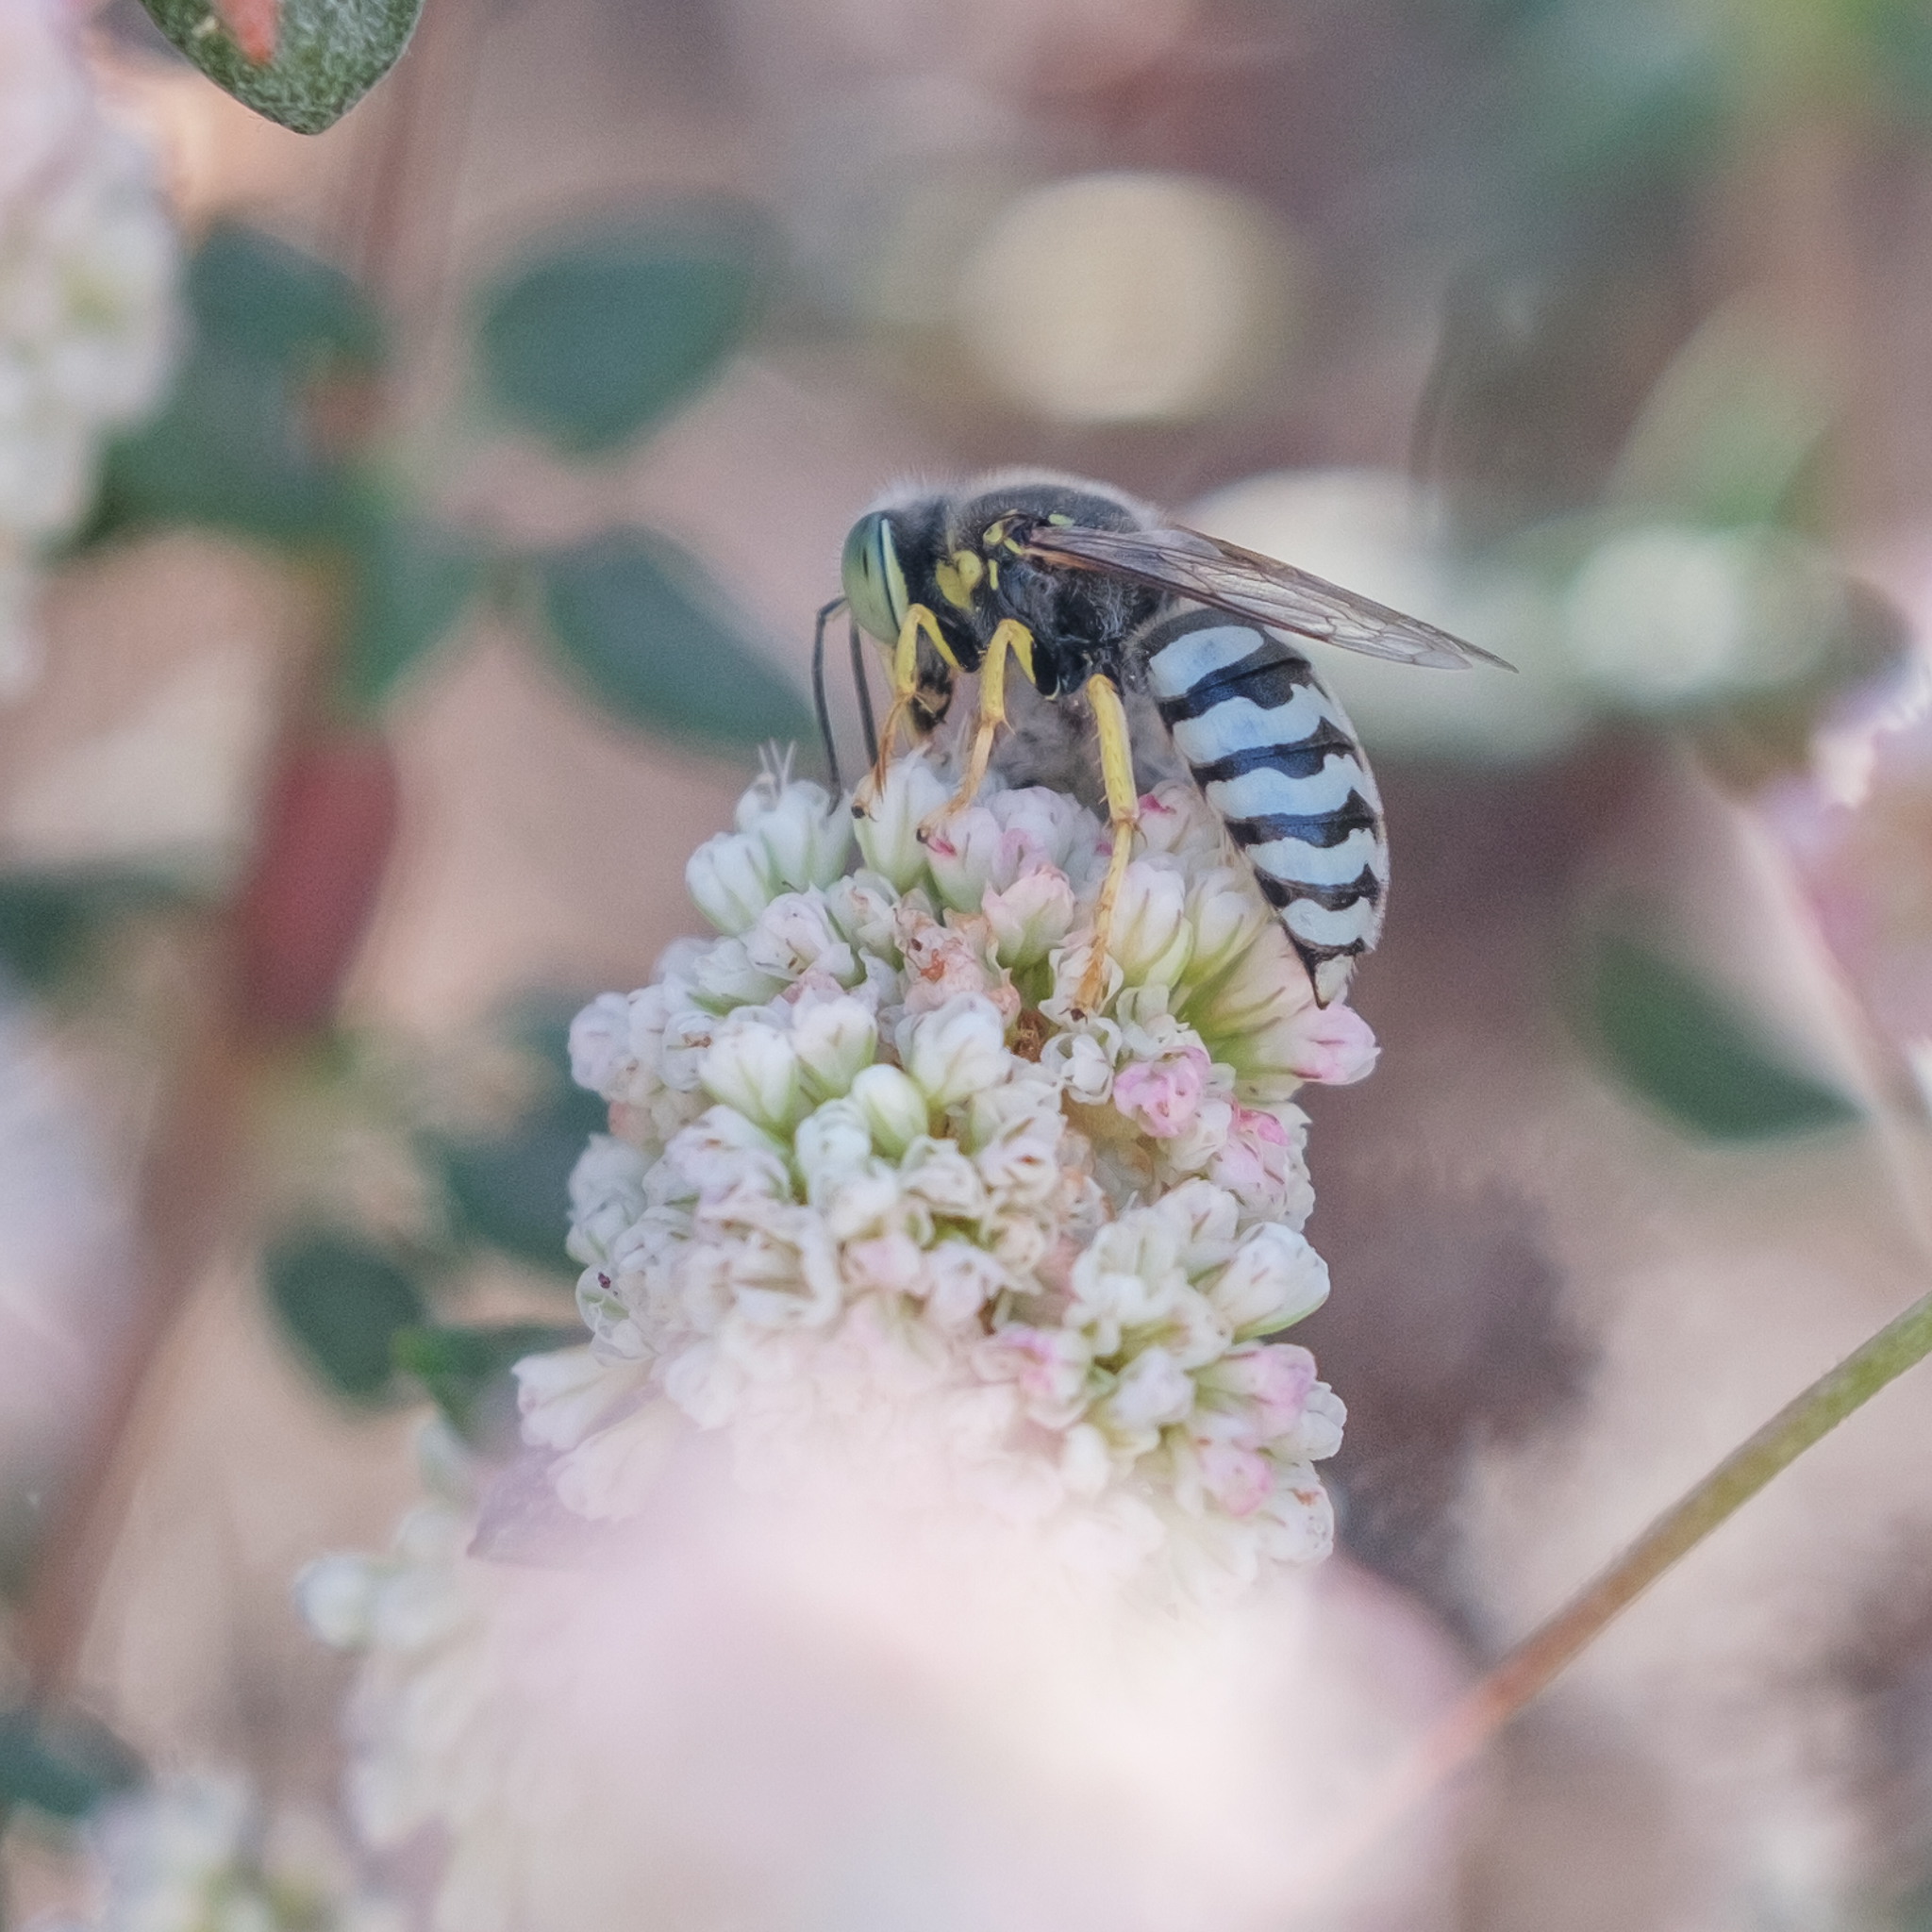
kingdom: Animalia
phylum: Arthropoda
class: Insecta
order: Hymenoptera
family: Crabronidae
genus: Bembix
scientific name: Bembix americana
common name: American sand wasp
